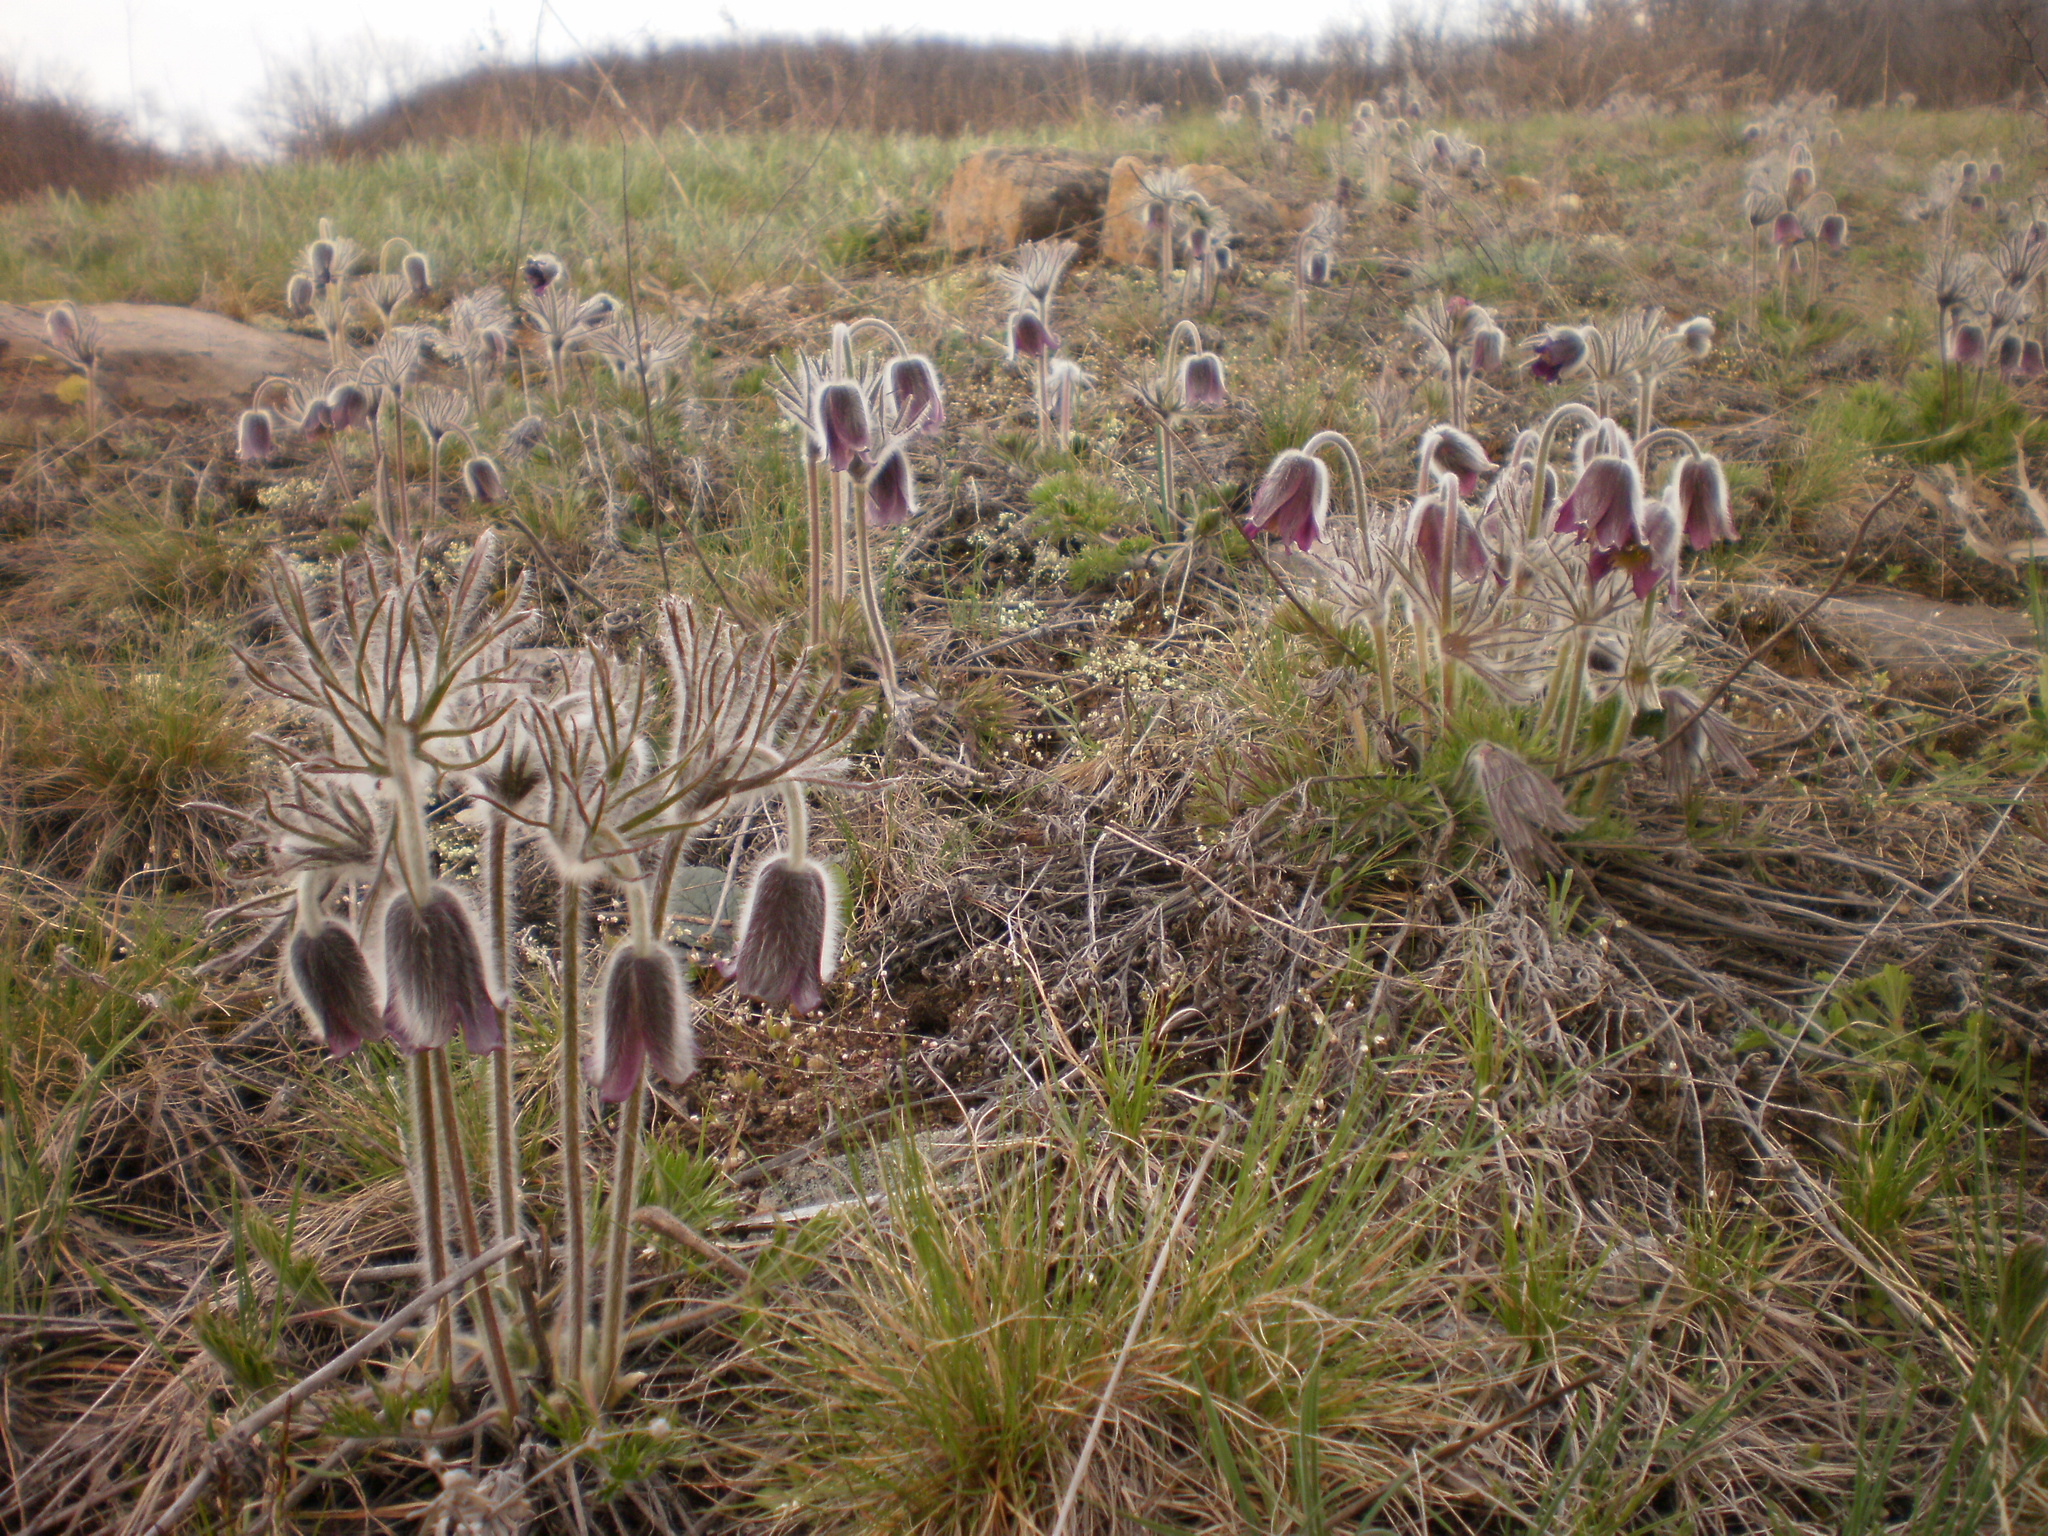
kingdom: Plantae
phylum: Tracheophyta
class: Magnoliopsida
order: Ranunculales
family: Ranunculaceae
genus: Pulsatilla
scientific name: Pulsatilla pratensis
